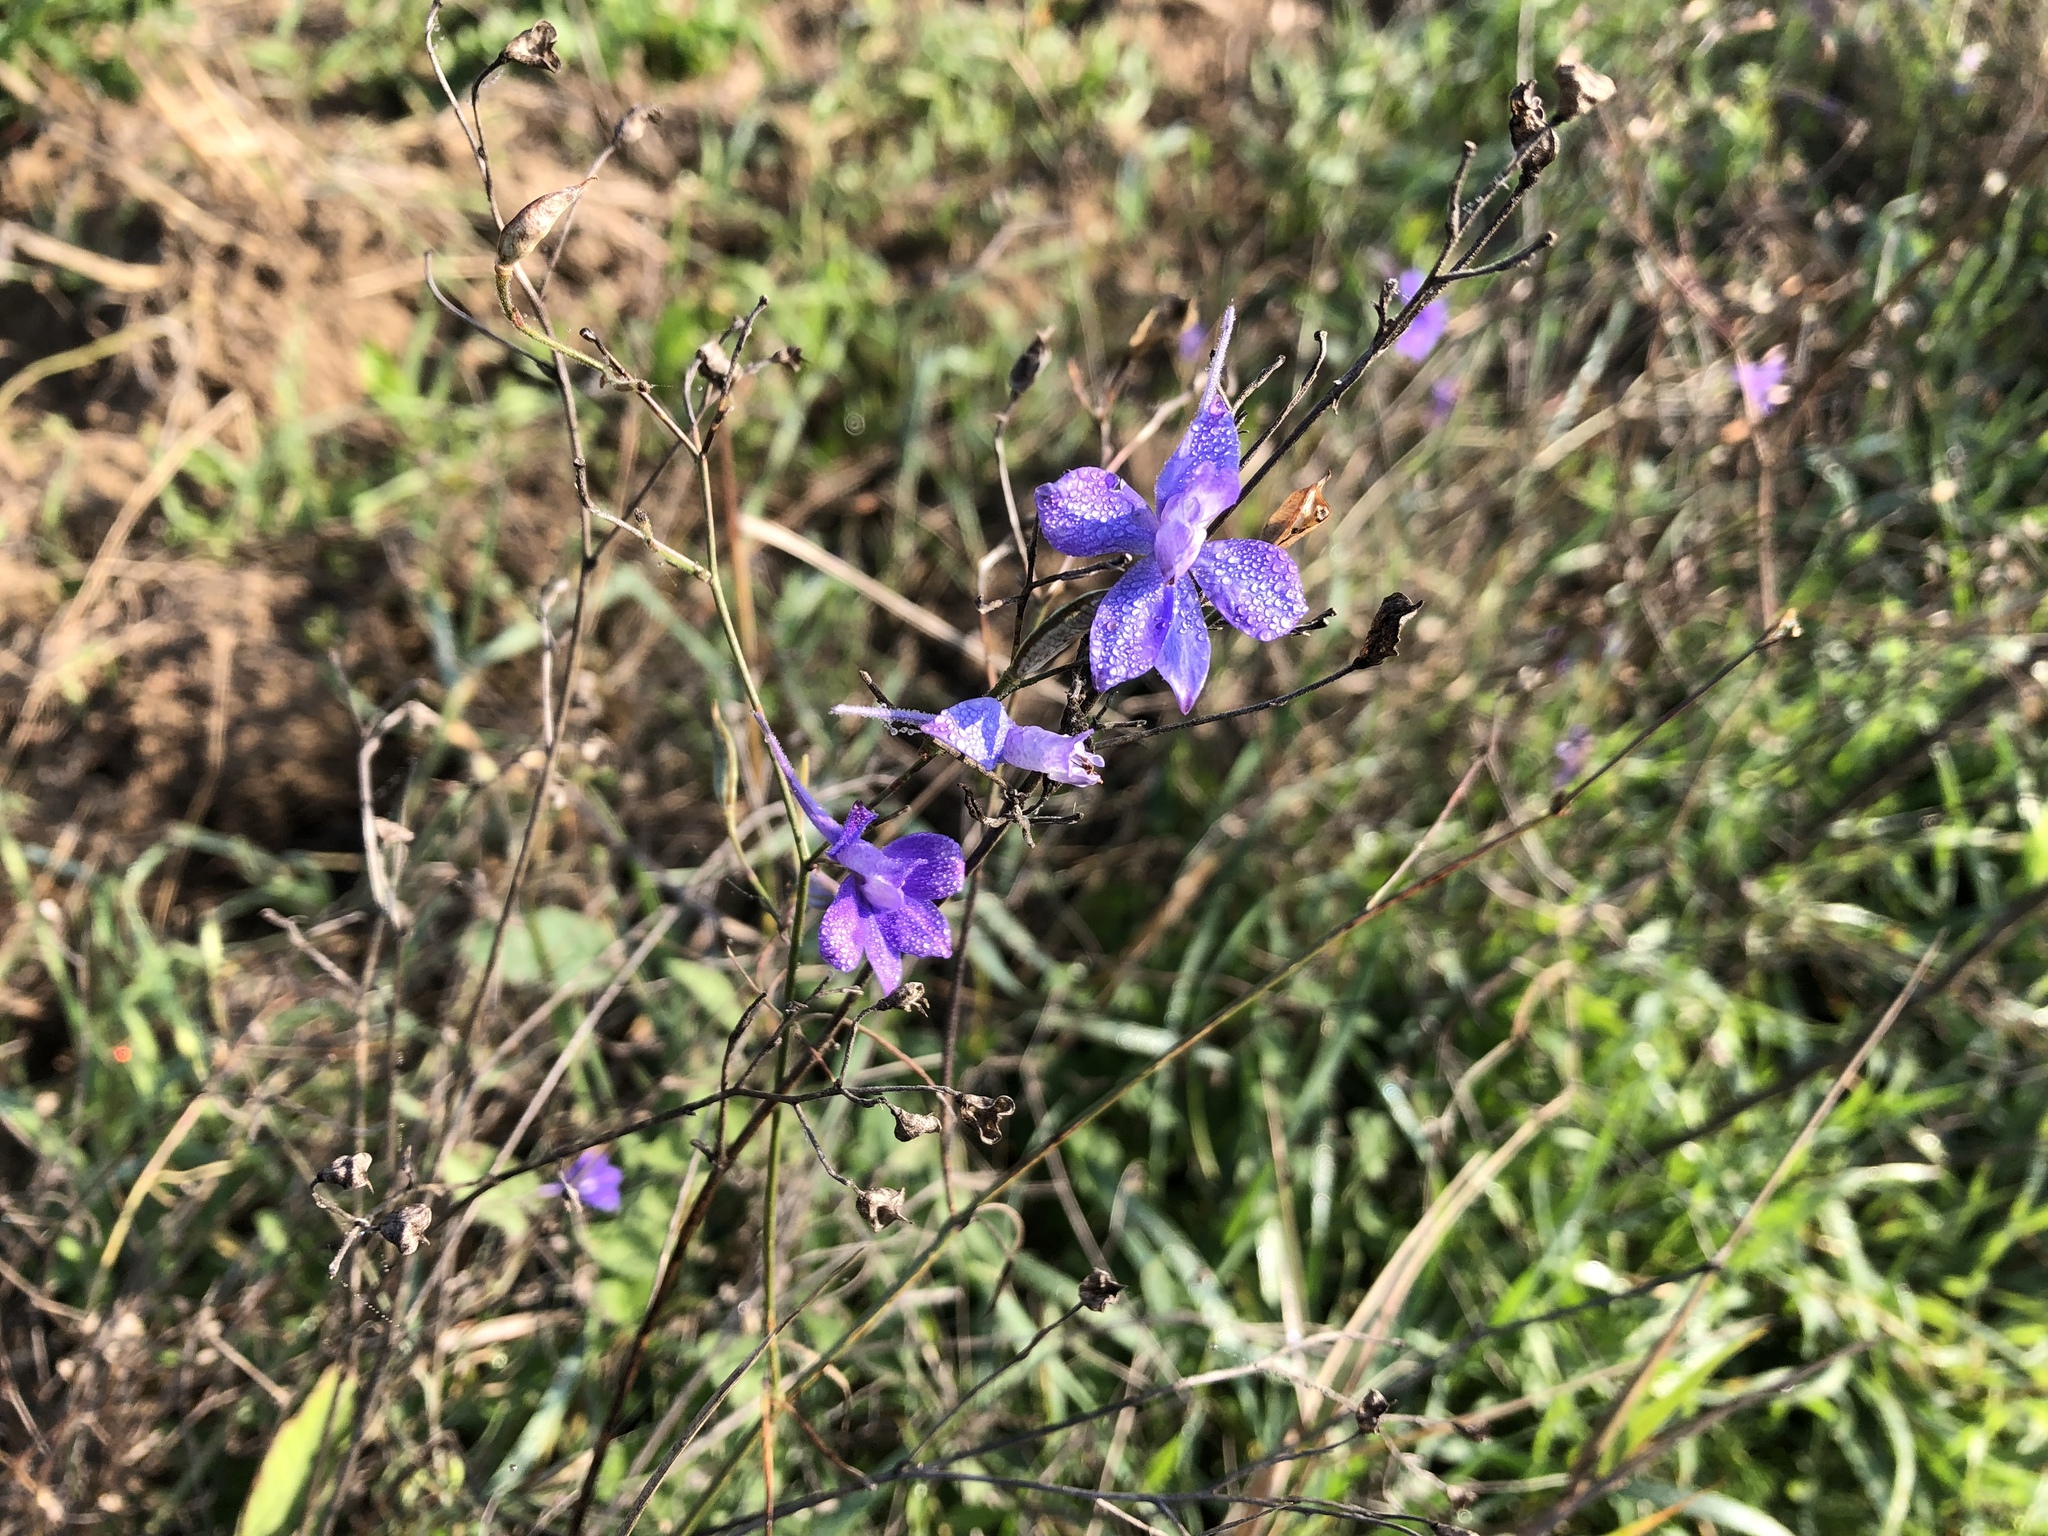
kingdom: Plantae
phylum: Tracheophyta
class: Magnoliopsida
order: Ranunculales
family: Ranunculaceae
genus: Delphinium
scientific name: Delphinium consolida
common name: Branching larkspur
